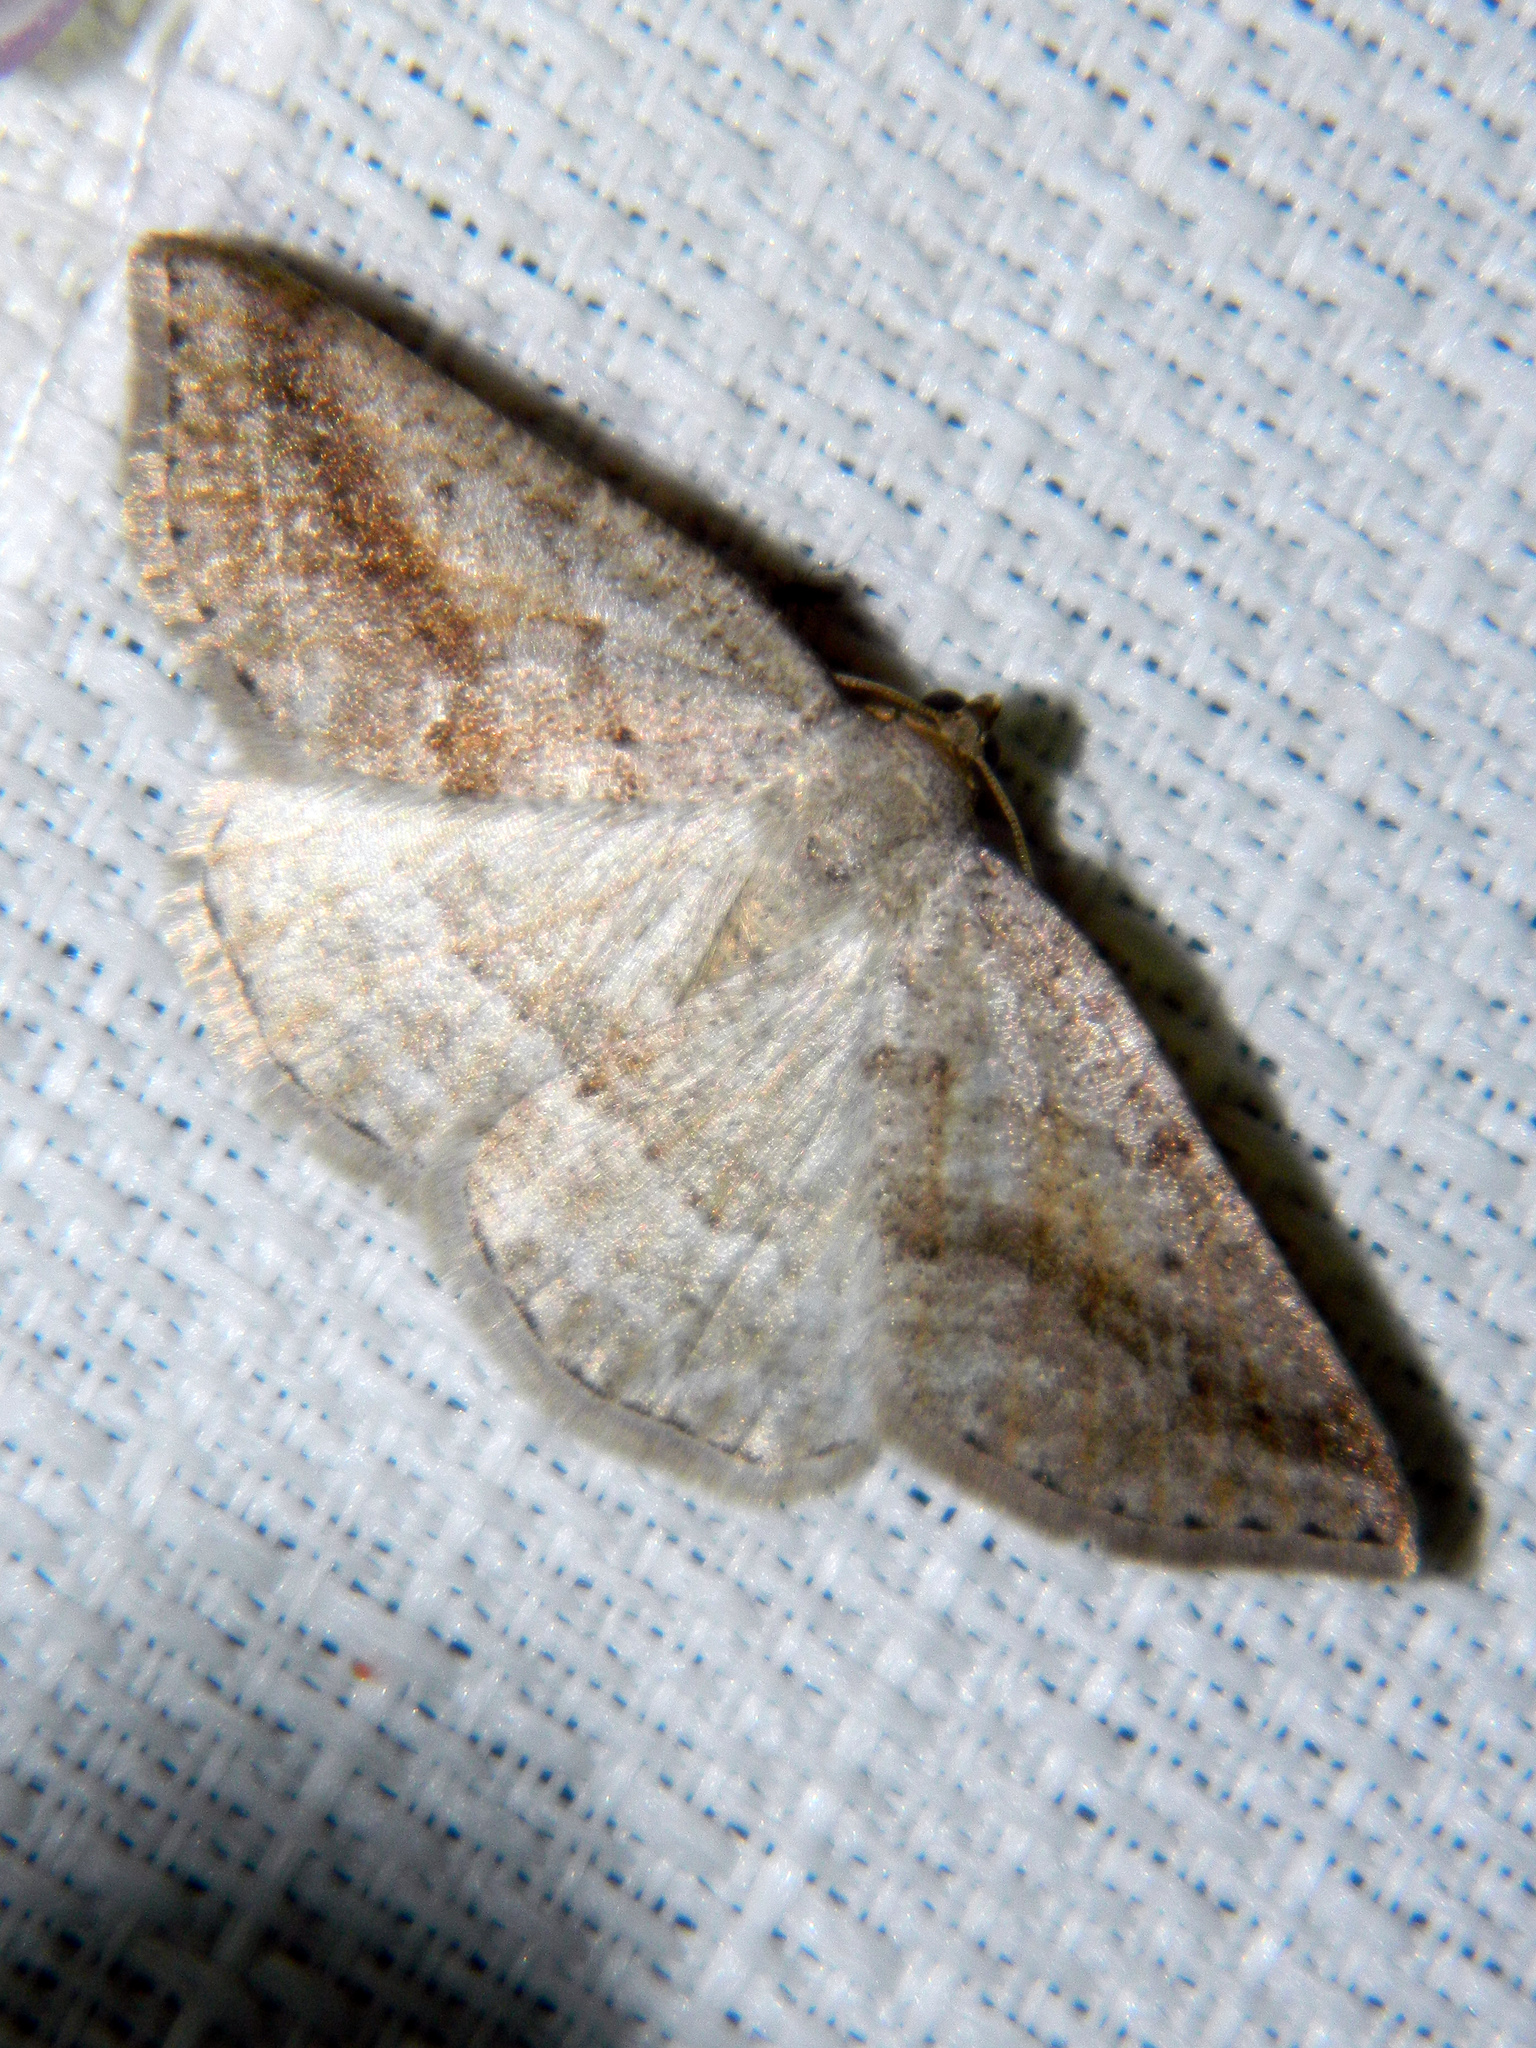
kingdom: Animalia
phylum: Arthropoda
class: Insecta
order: Lepidoptera
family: Geometridae
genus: Tacparia
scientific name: Tacparia detersata
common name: Pale alder moth
